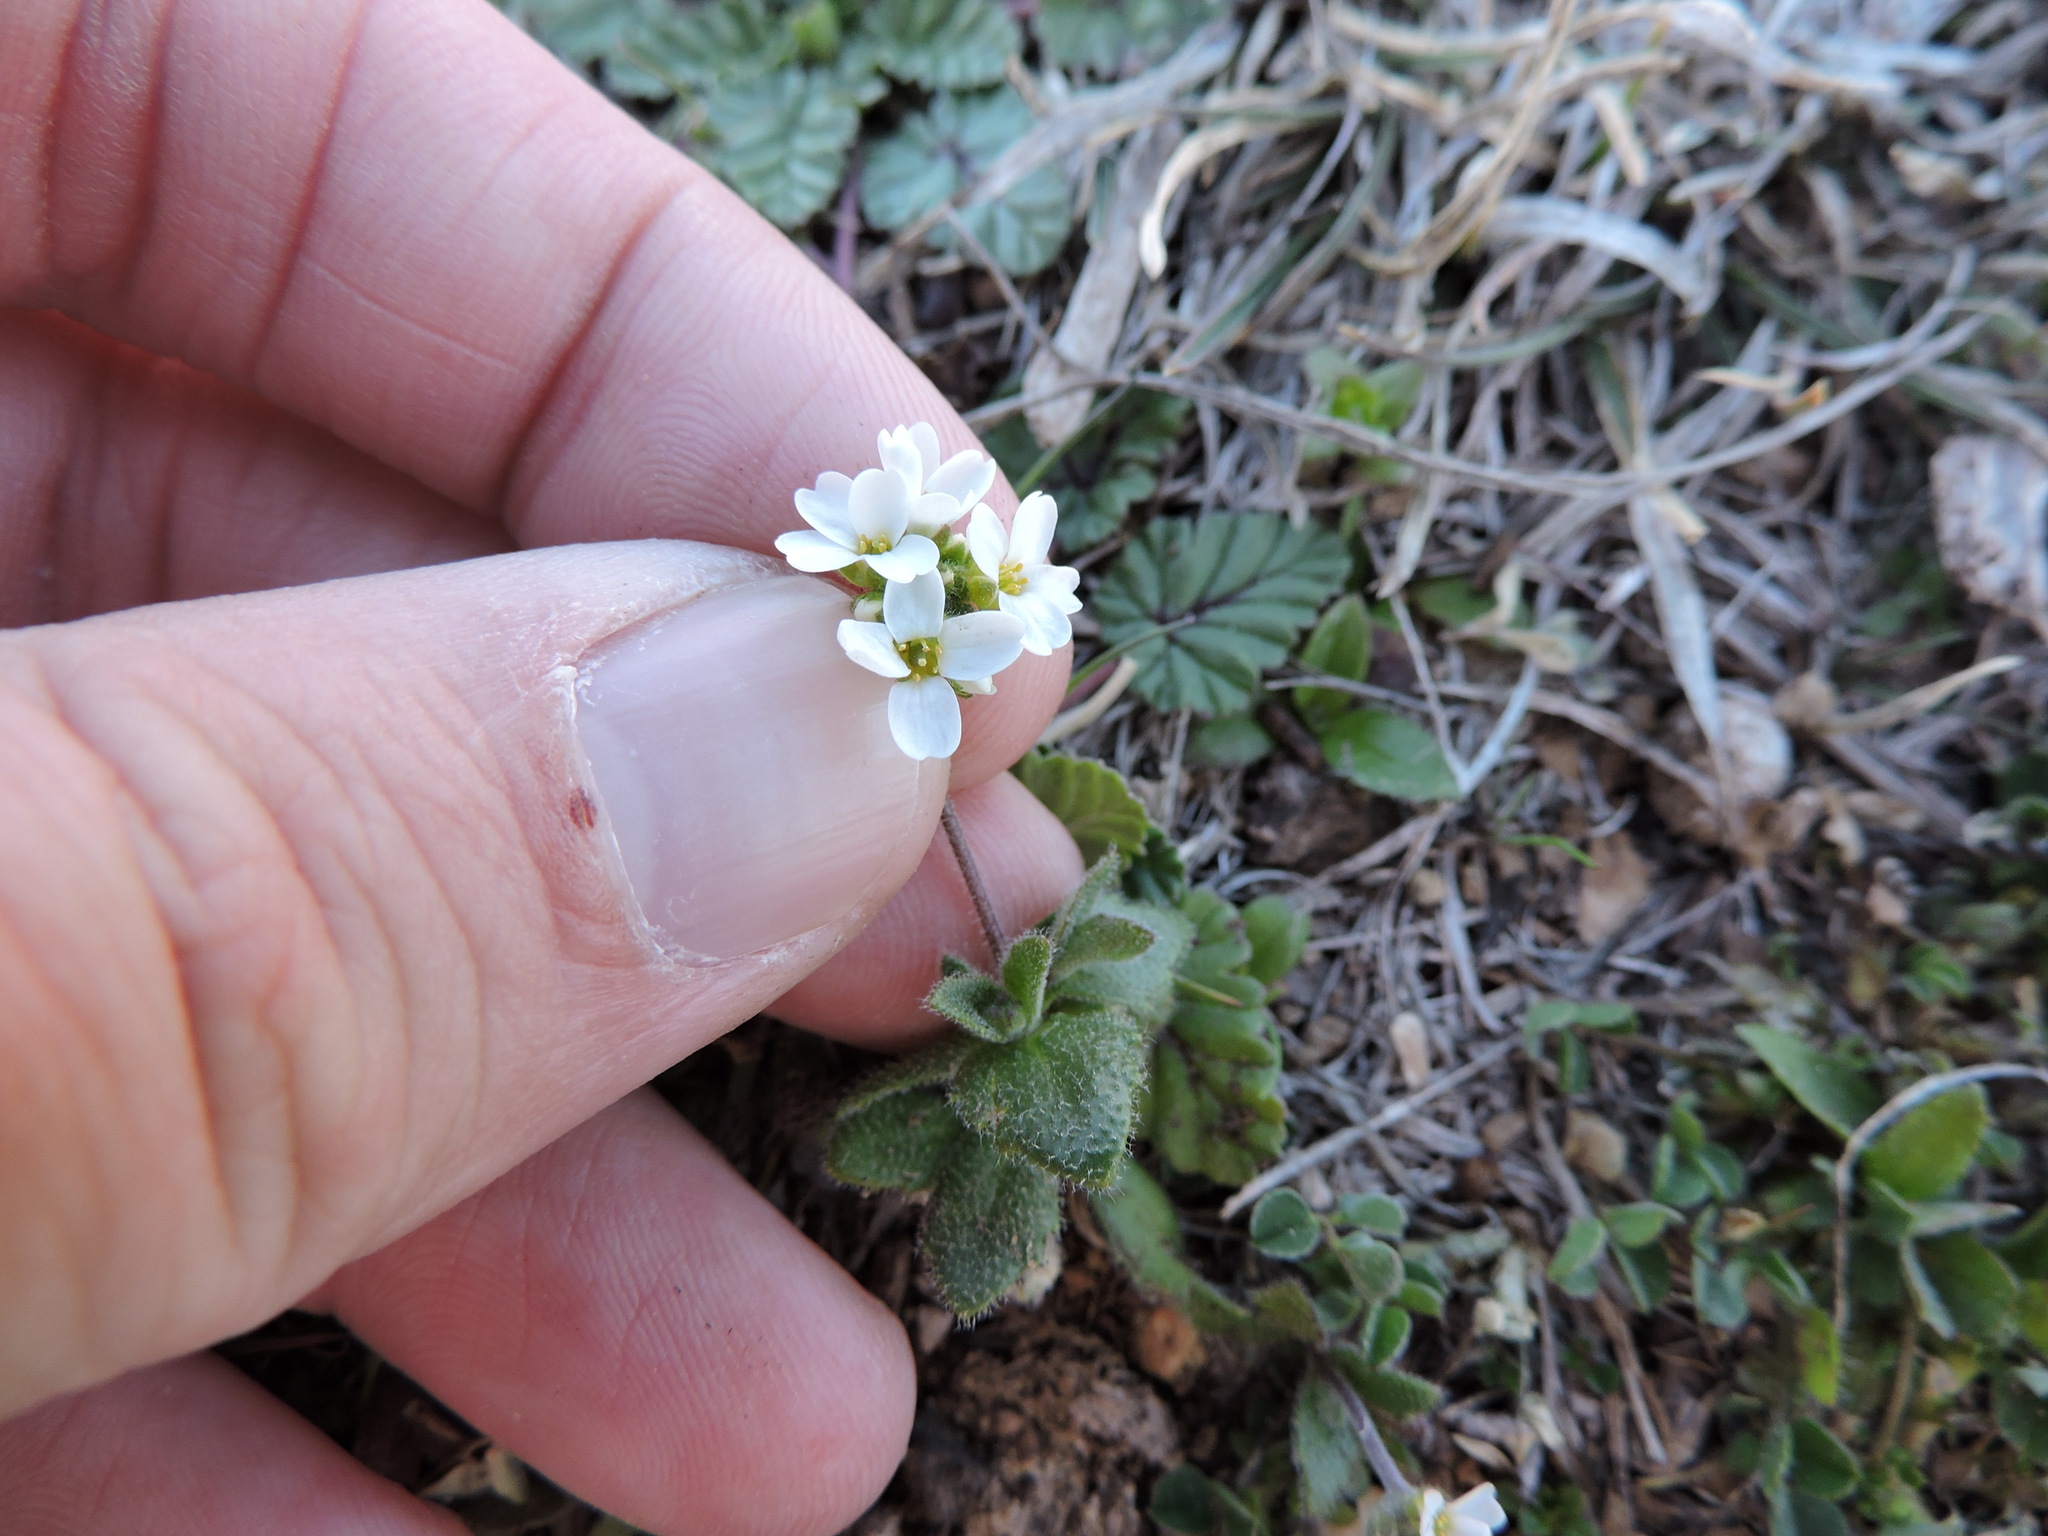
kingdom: Plantae
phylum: Tracheophyta
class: Magnoliopsida
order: Brassicales
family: Brassicaceae
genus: Tomostima
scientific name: Tomostima cuneifolia
